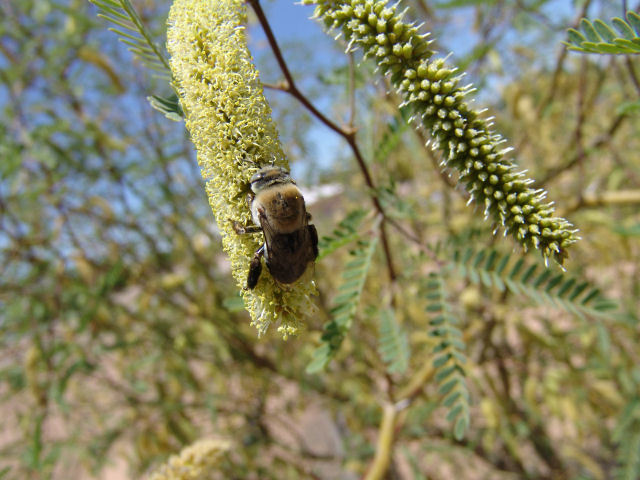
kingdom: Animalia
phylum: Arthropoda
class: Insecta
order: Hymenoptera
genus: Paracentris
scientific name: Paracentris
